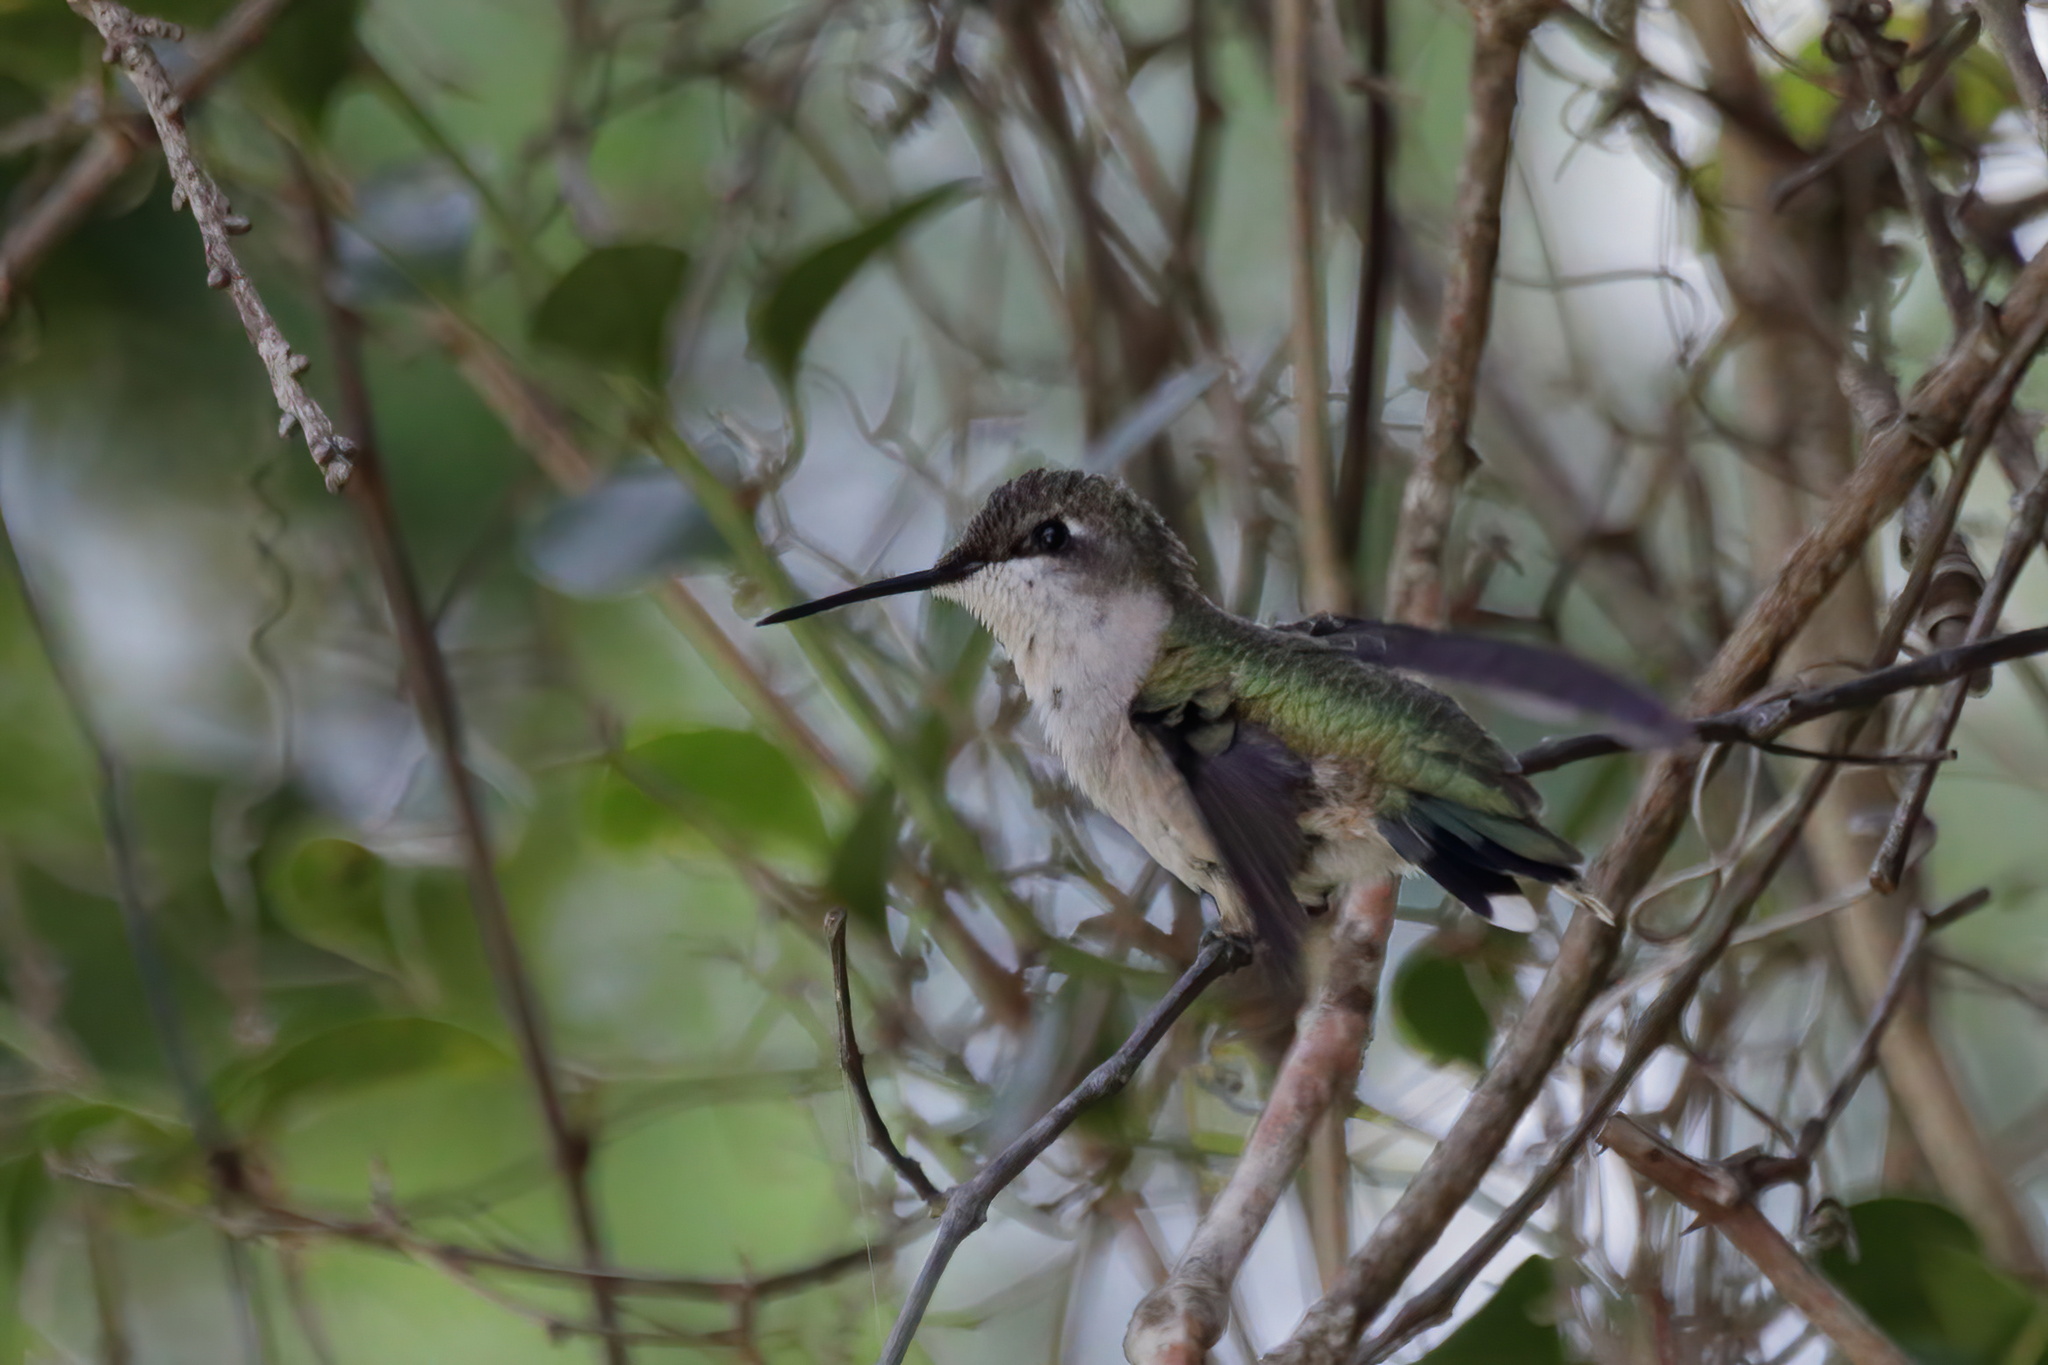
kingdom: Animalia
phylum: Chordata
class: Aves
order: Apodiformes
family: Trochilidae
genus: Archilochus
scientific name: Archilochus colubris
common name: Ruby-throated hummingbird
